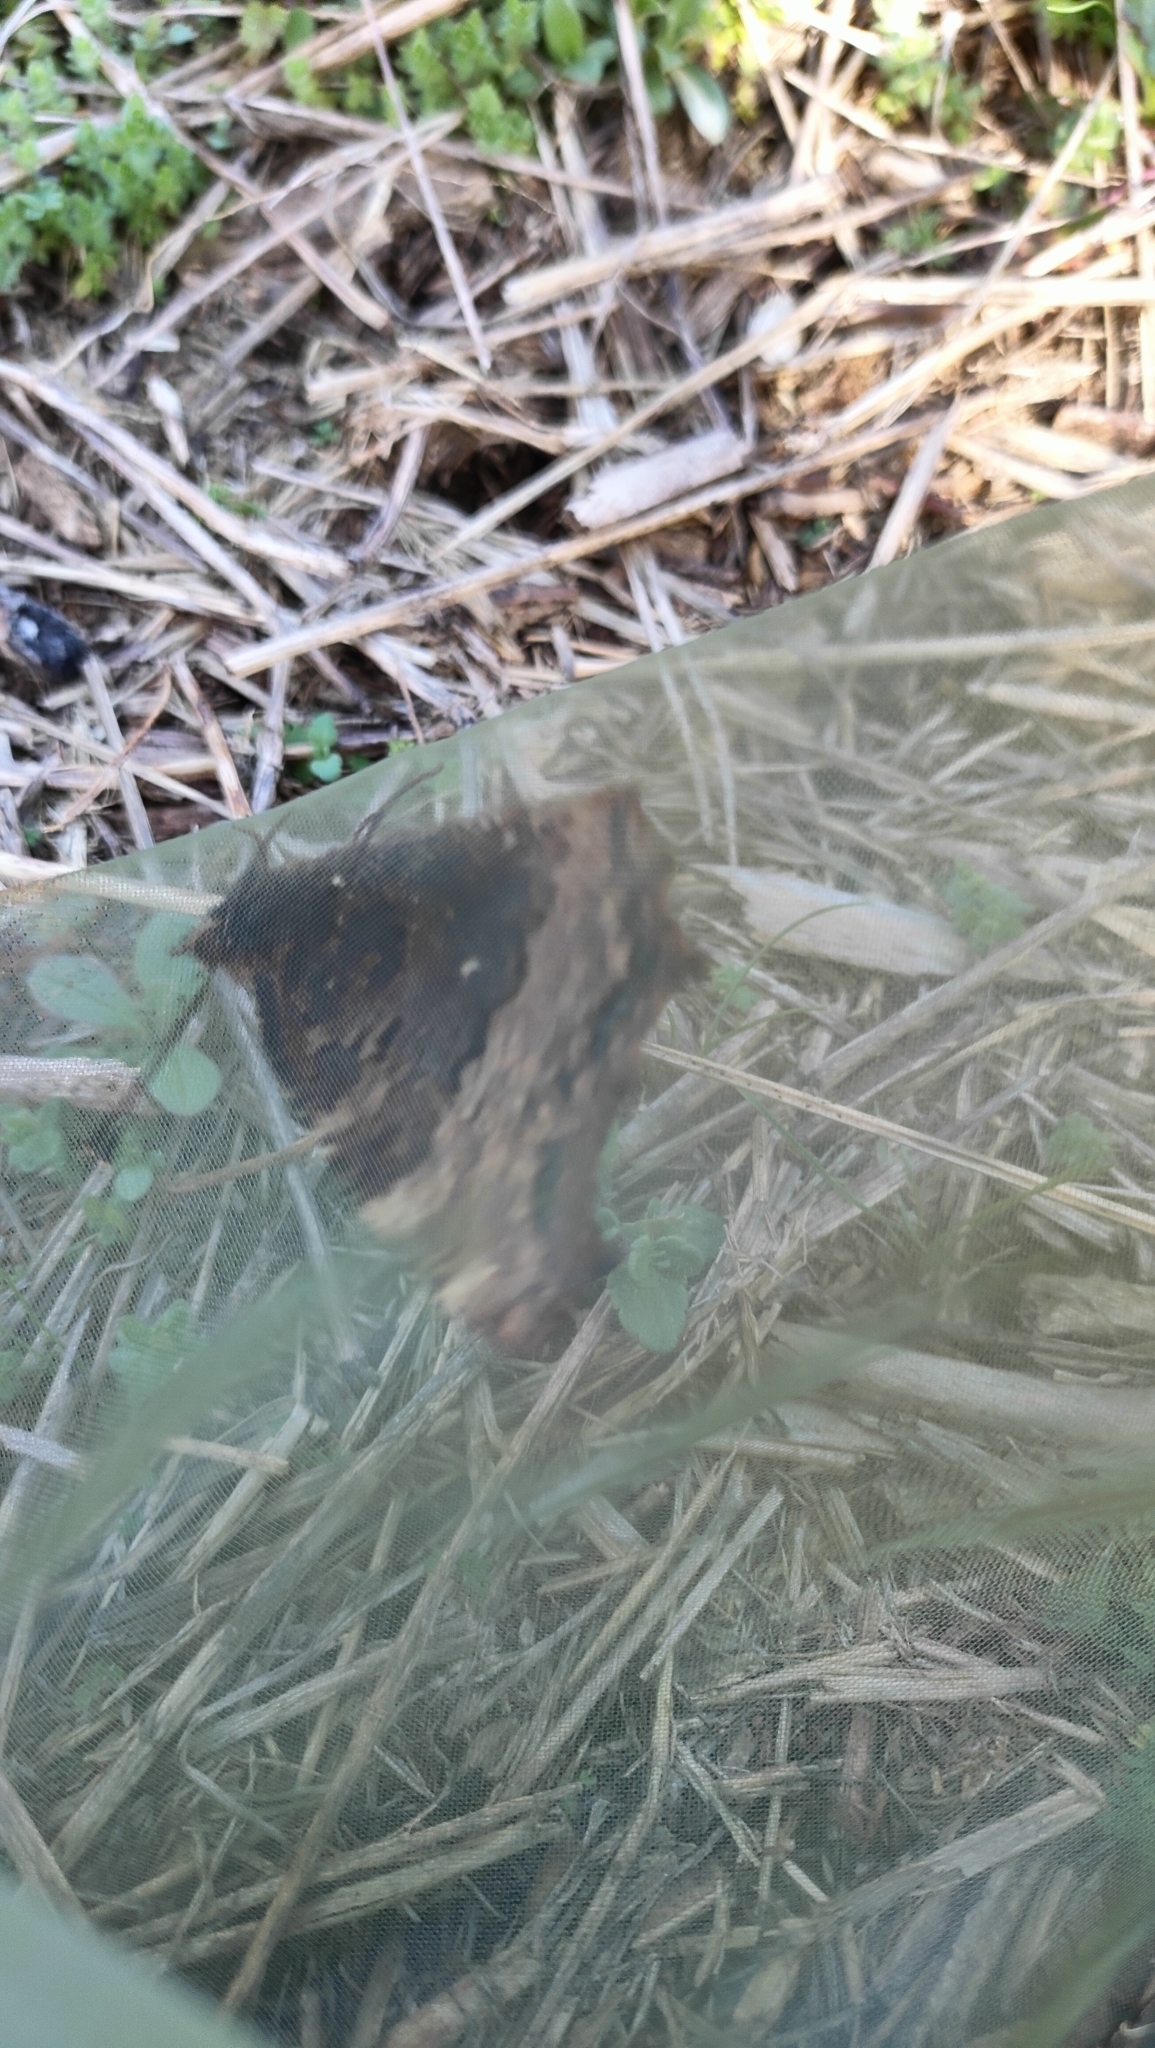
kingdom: Animalia
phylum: Arthropoda
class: Insecta
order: Lepidoptera
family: Nymphalidae
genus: Nymphalis
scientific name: Nymphalis polychloros
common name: Large tortoiseshell
